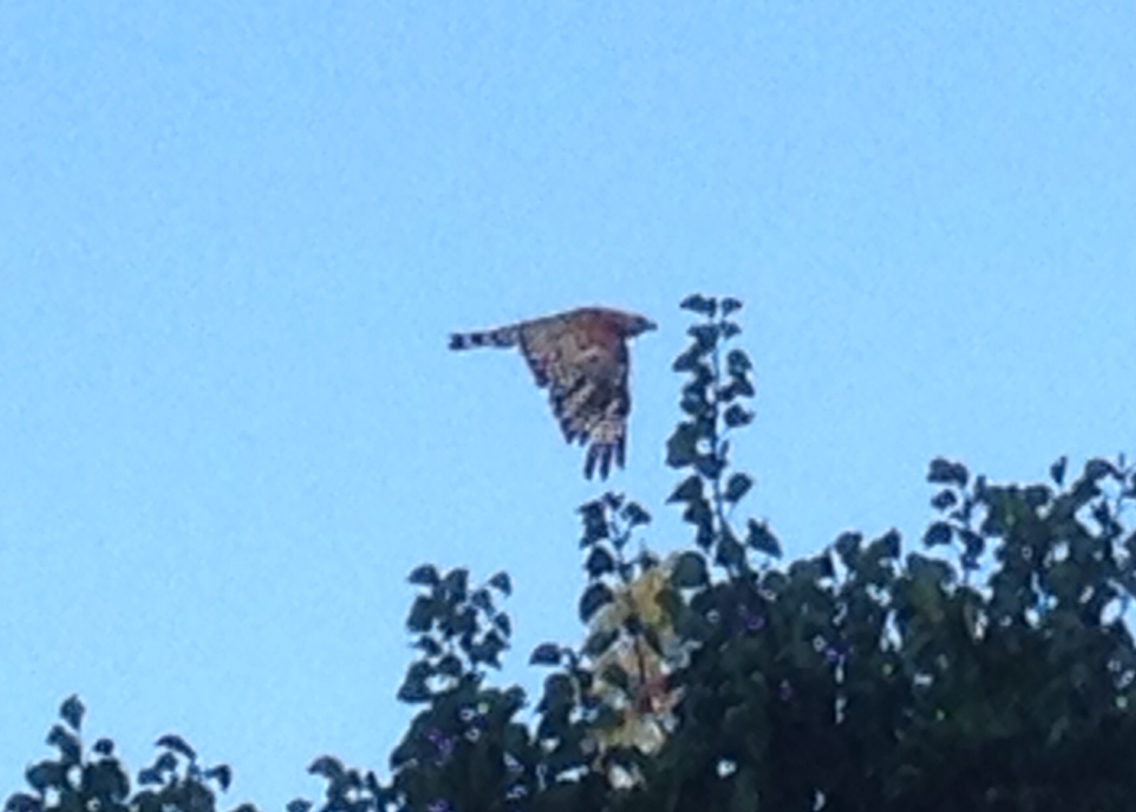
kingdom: Animalia
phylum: Chordata
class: Aves
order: Accipitriformes
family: Accipitridae
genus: Buteo
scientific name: Buteo lineatus
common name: Red-shouldered hawk
